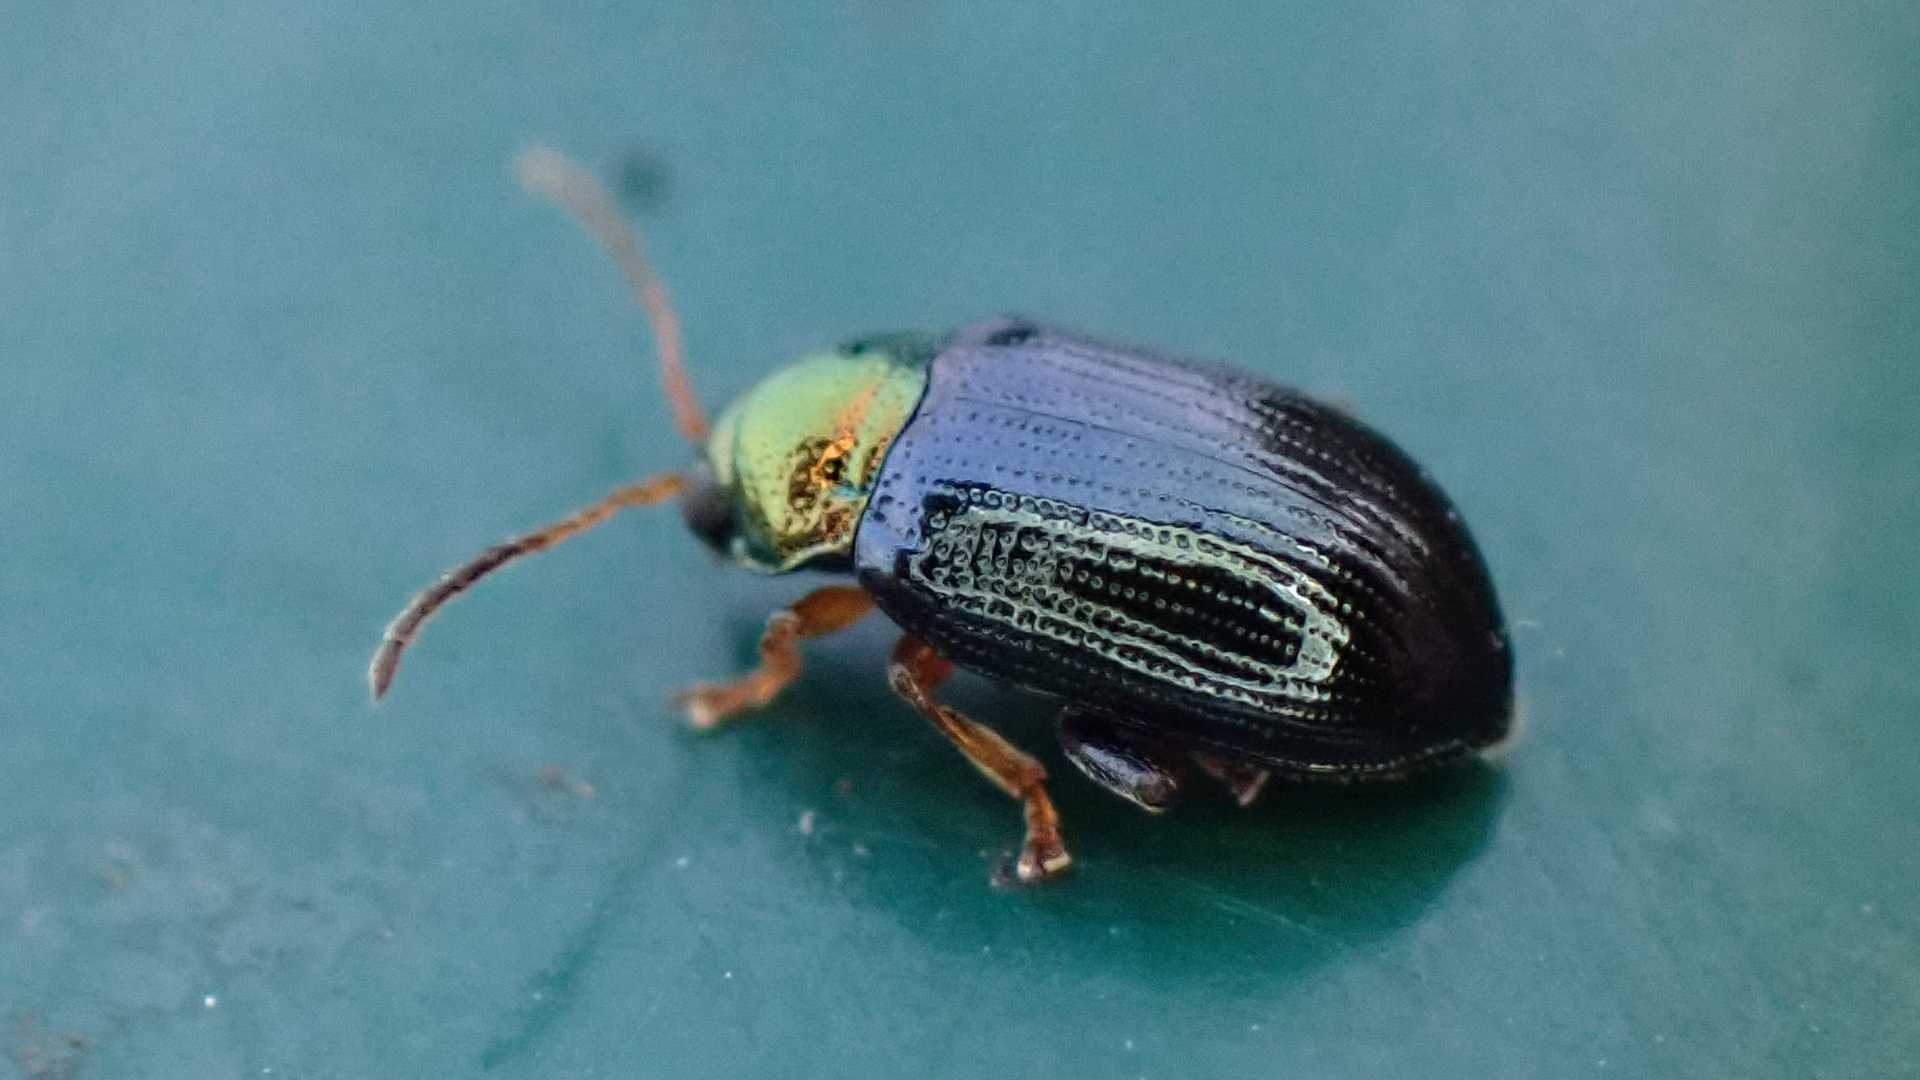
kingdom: Animalia
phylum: Arthropoda
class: Insecta
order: Coleoptera
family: Chrysomelidae
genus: Crepidodera
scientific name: Crepidodera aurata
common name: Willow flea beetle
